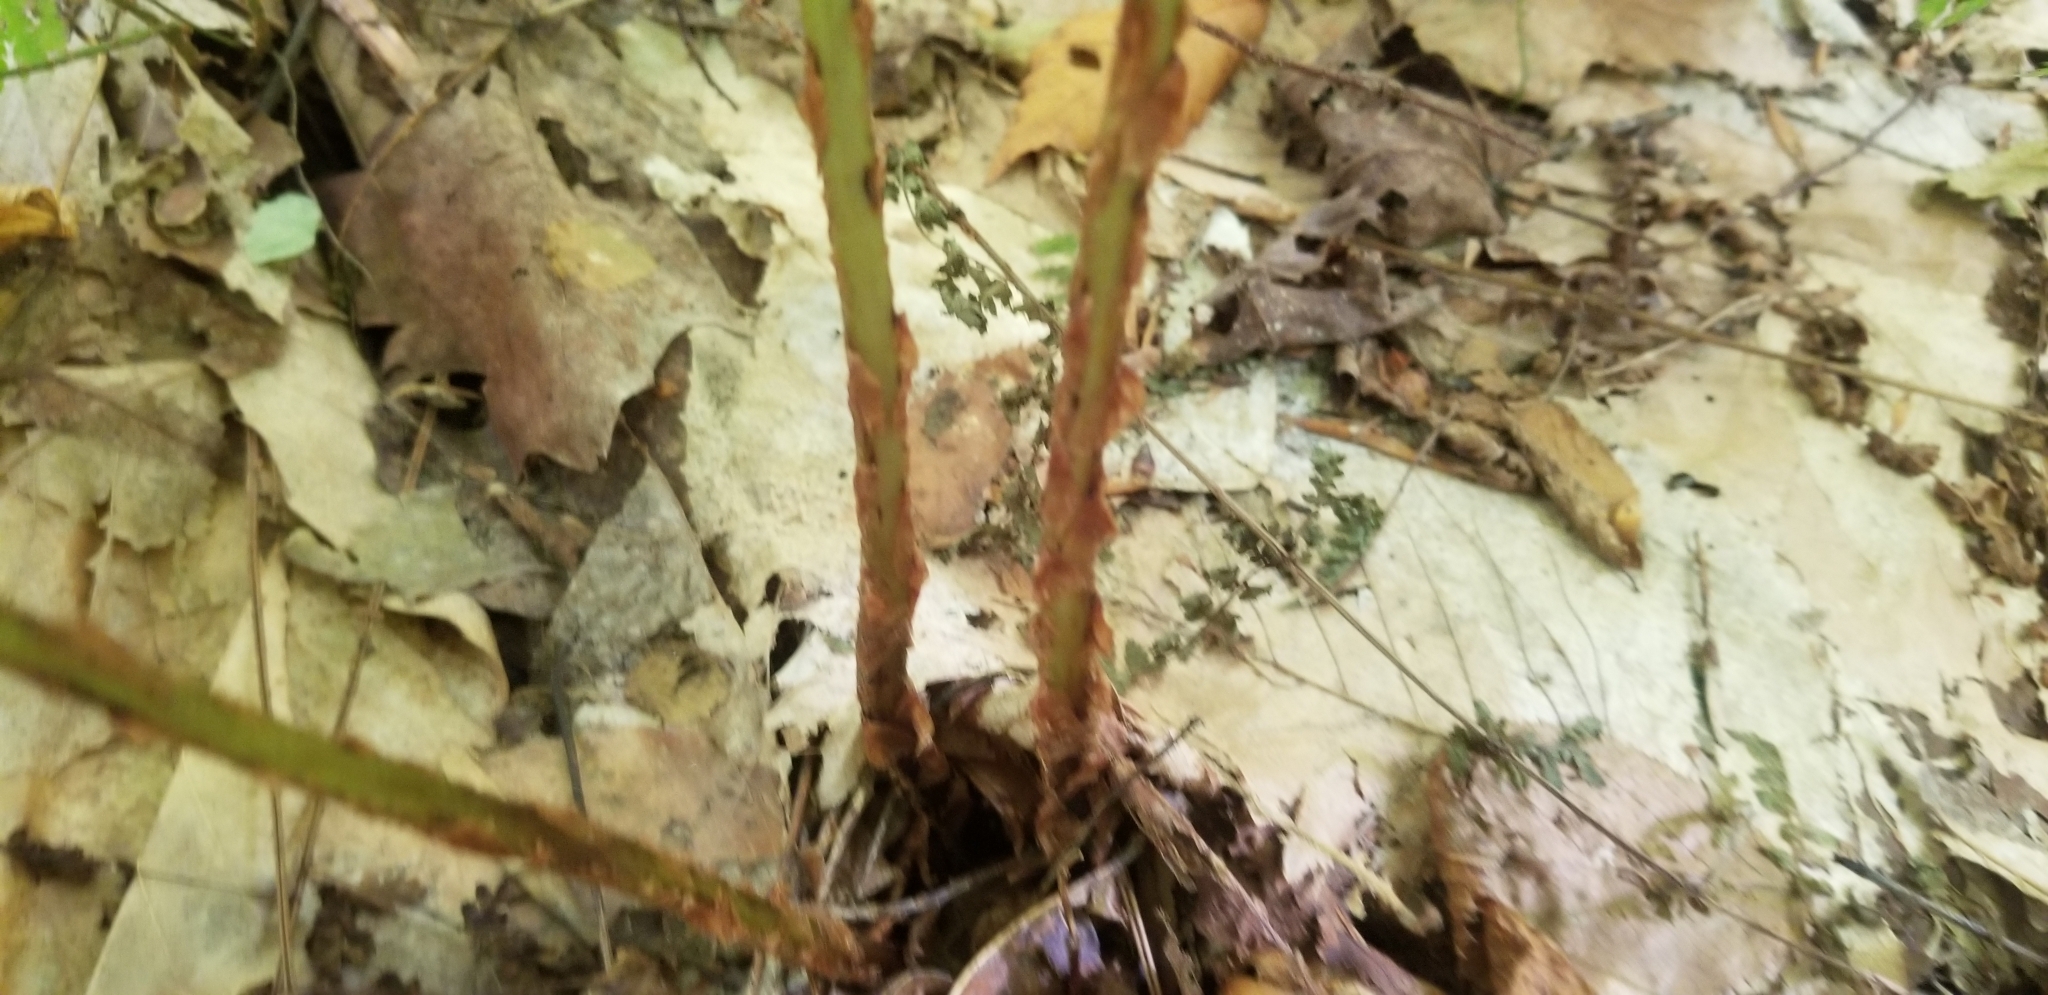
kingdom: Plantae
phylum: Tracheophyta
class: Polypodiopsida
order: Polypodiales
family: Dryopteridaceae
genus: Dryopteris
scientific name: Dryopteris intermedia
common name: Evergreen wood fern
